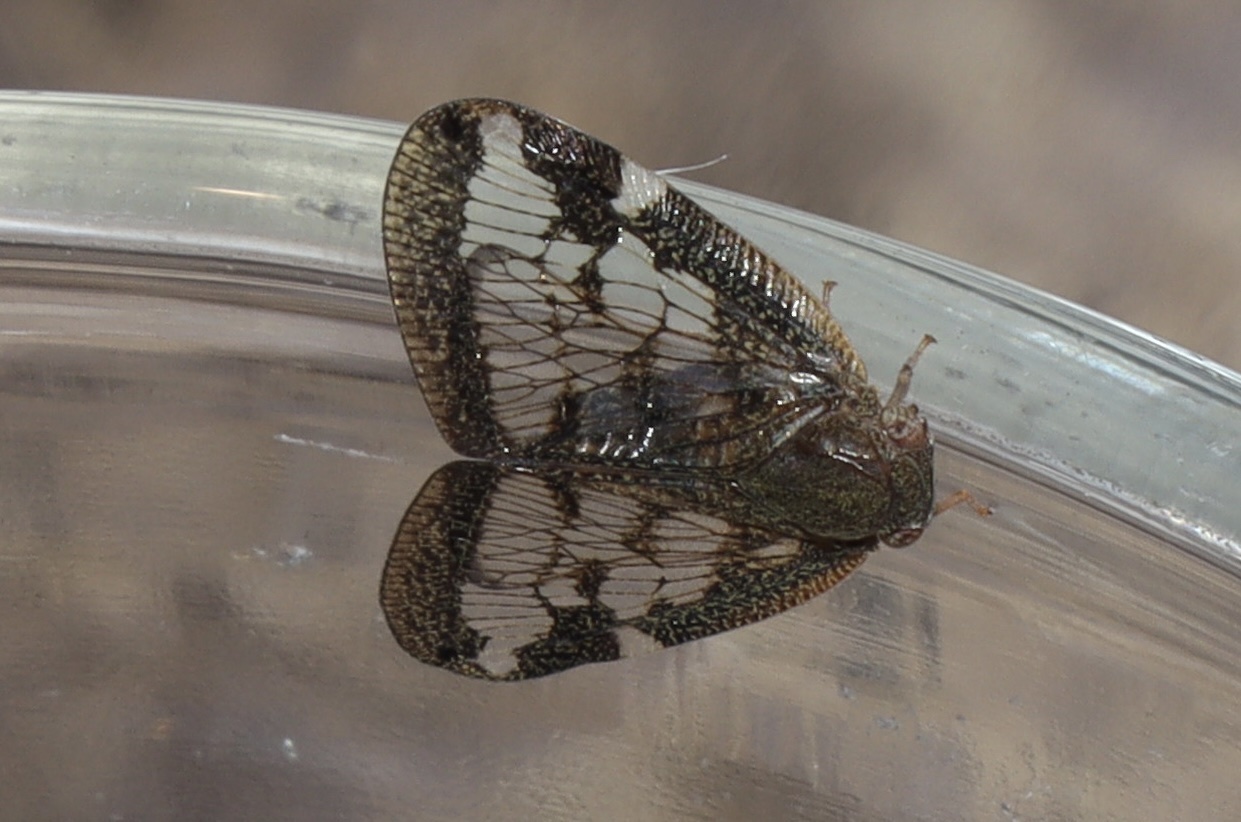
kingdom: Animalia
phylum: Arthropoda
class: Insecta
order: Hemiptera
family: Ricaniidae
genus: Scolypopa
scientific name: Scolypopa australis
